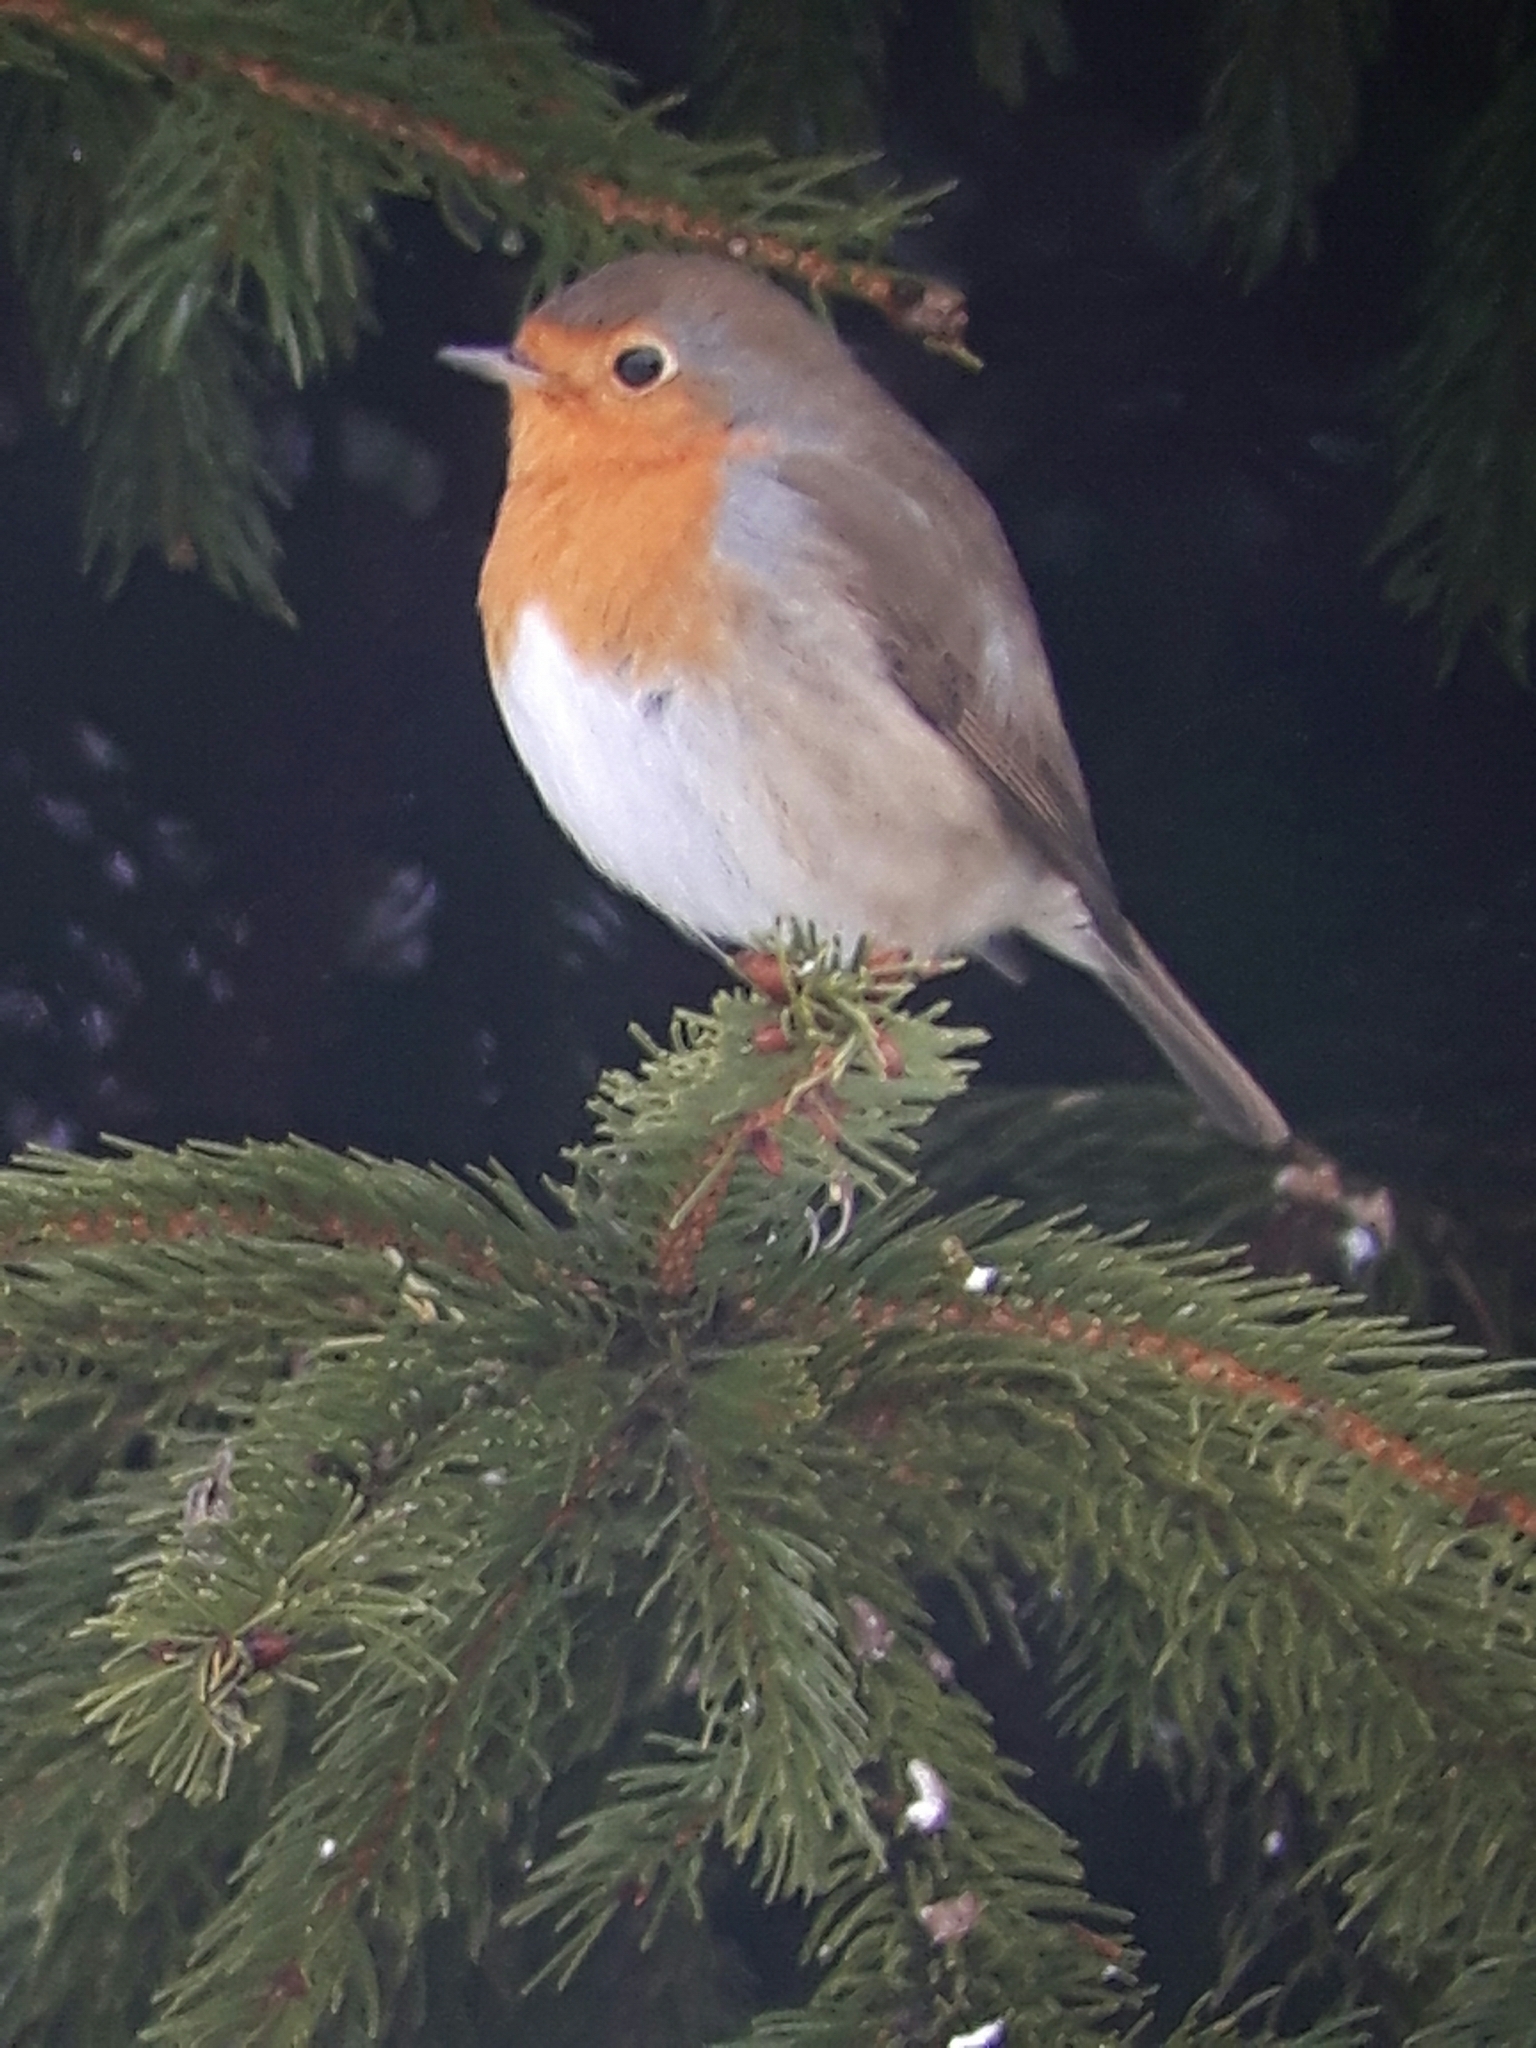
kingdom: Animalia
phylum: Chordata
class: Aves
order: Passeriformes
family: Muscicapidae
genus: Erithacus
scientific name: Erithacus rubecula
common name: European robin
